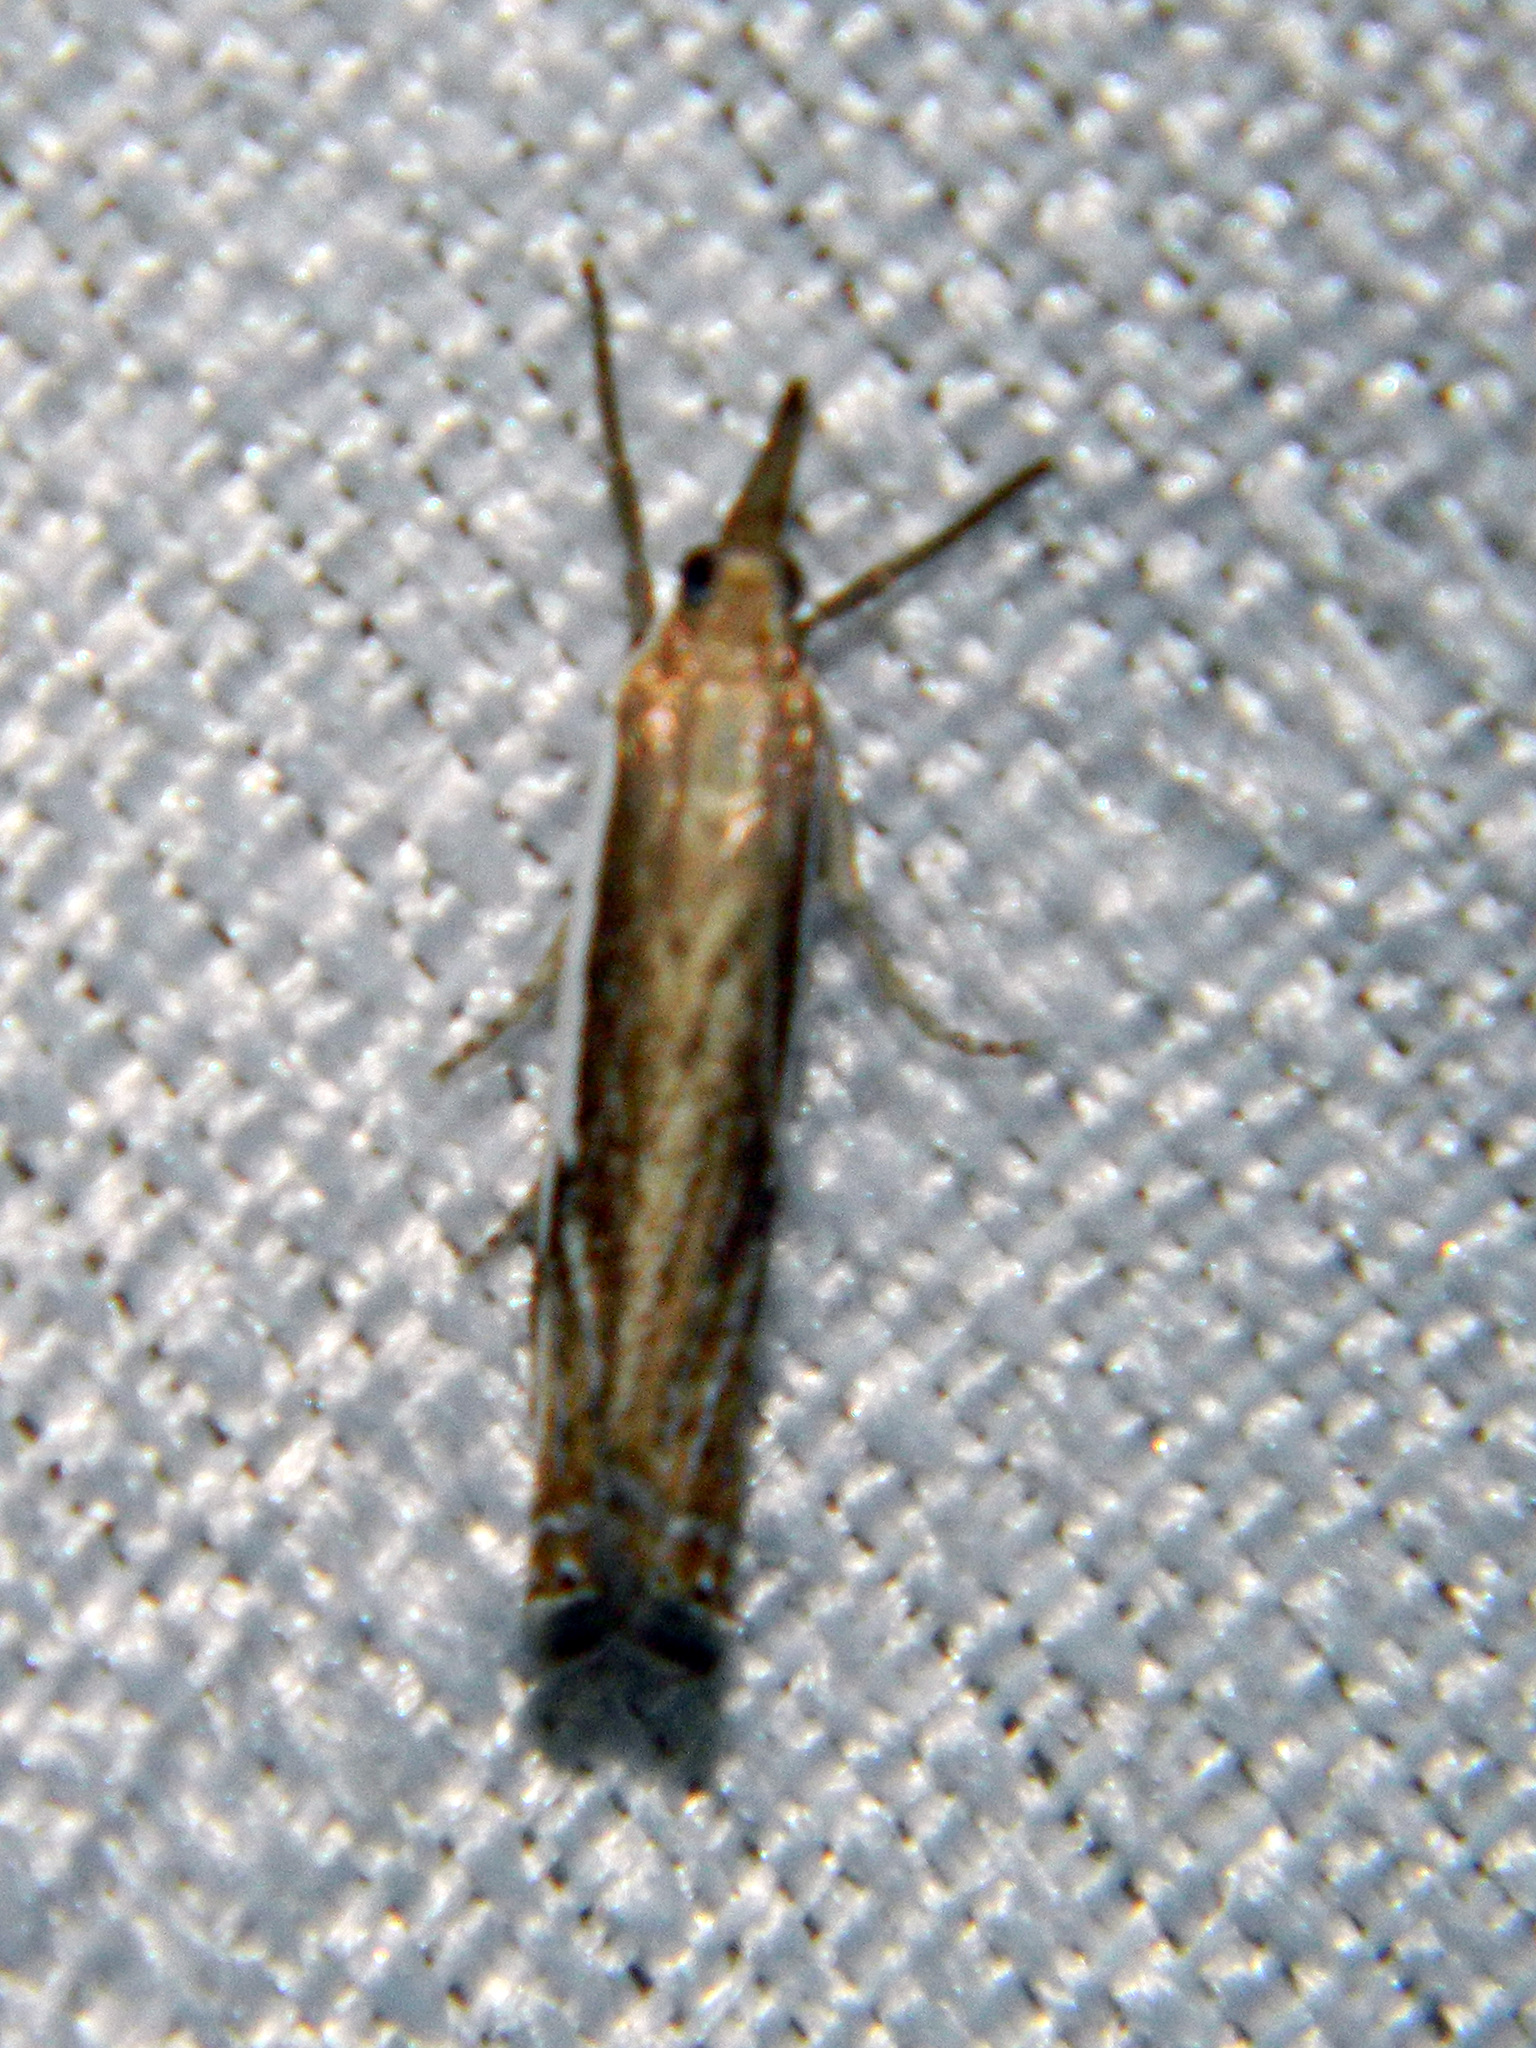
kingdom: Animalia
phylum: Arthropoda
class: Insecta
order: Lepidoptera
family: Crambidae
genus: Crambus
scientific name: Crambus agitatellus
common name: Double-banded grass-veneer
